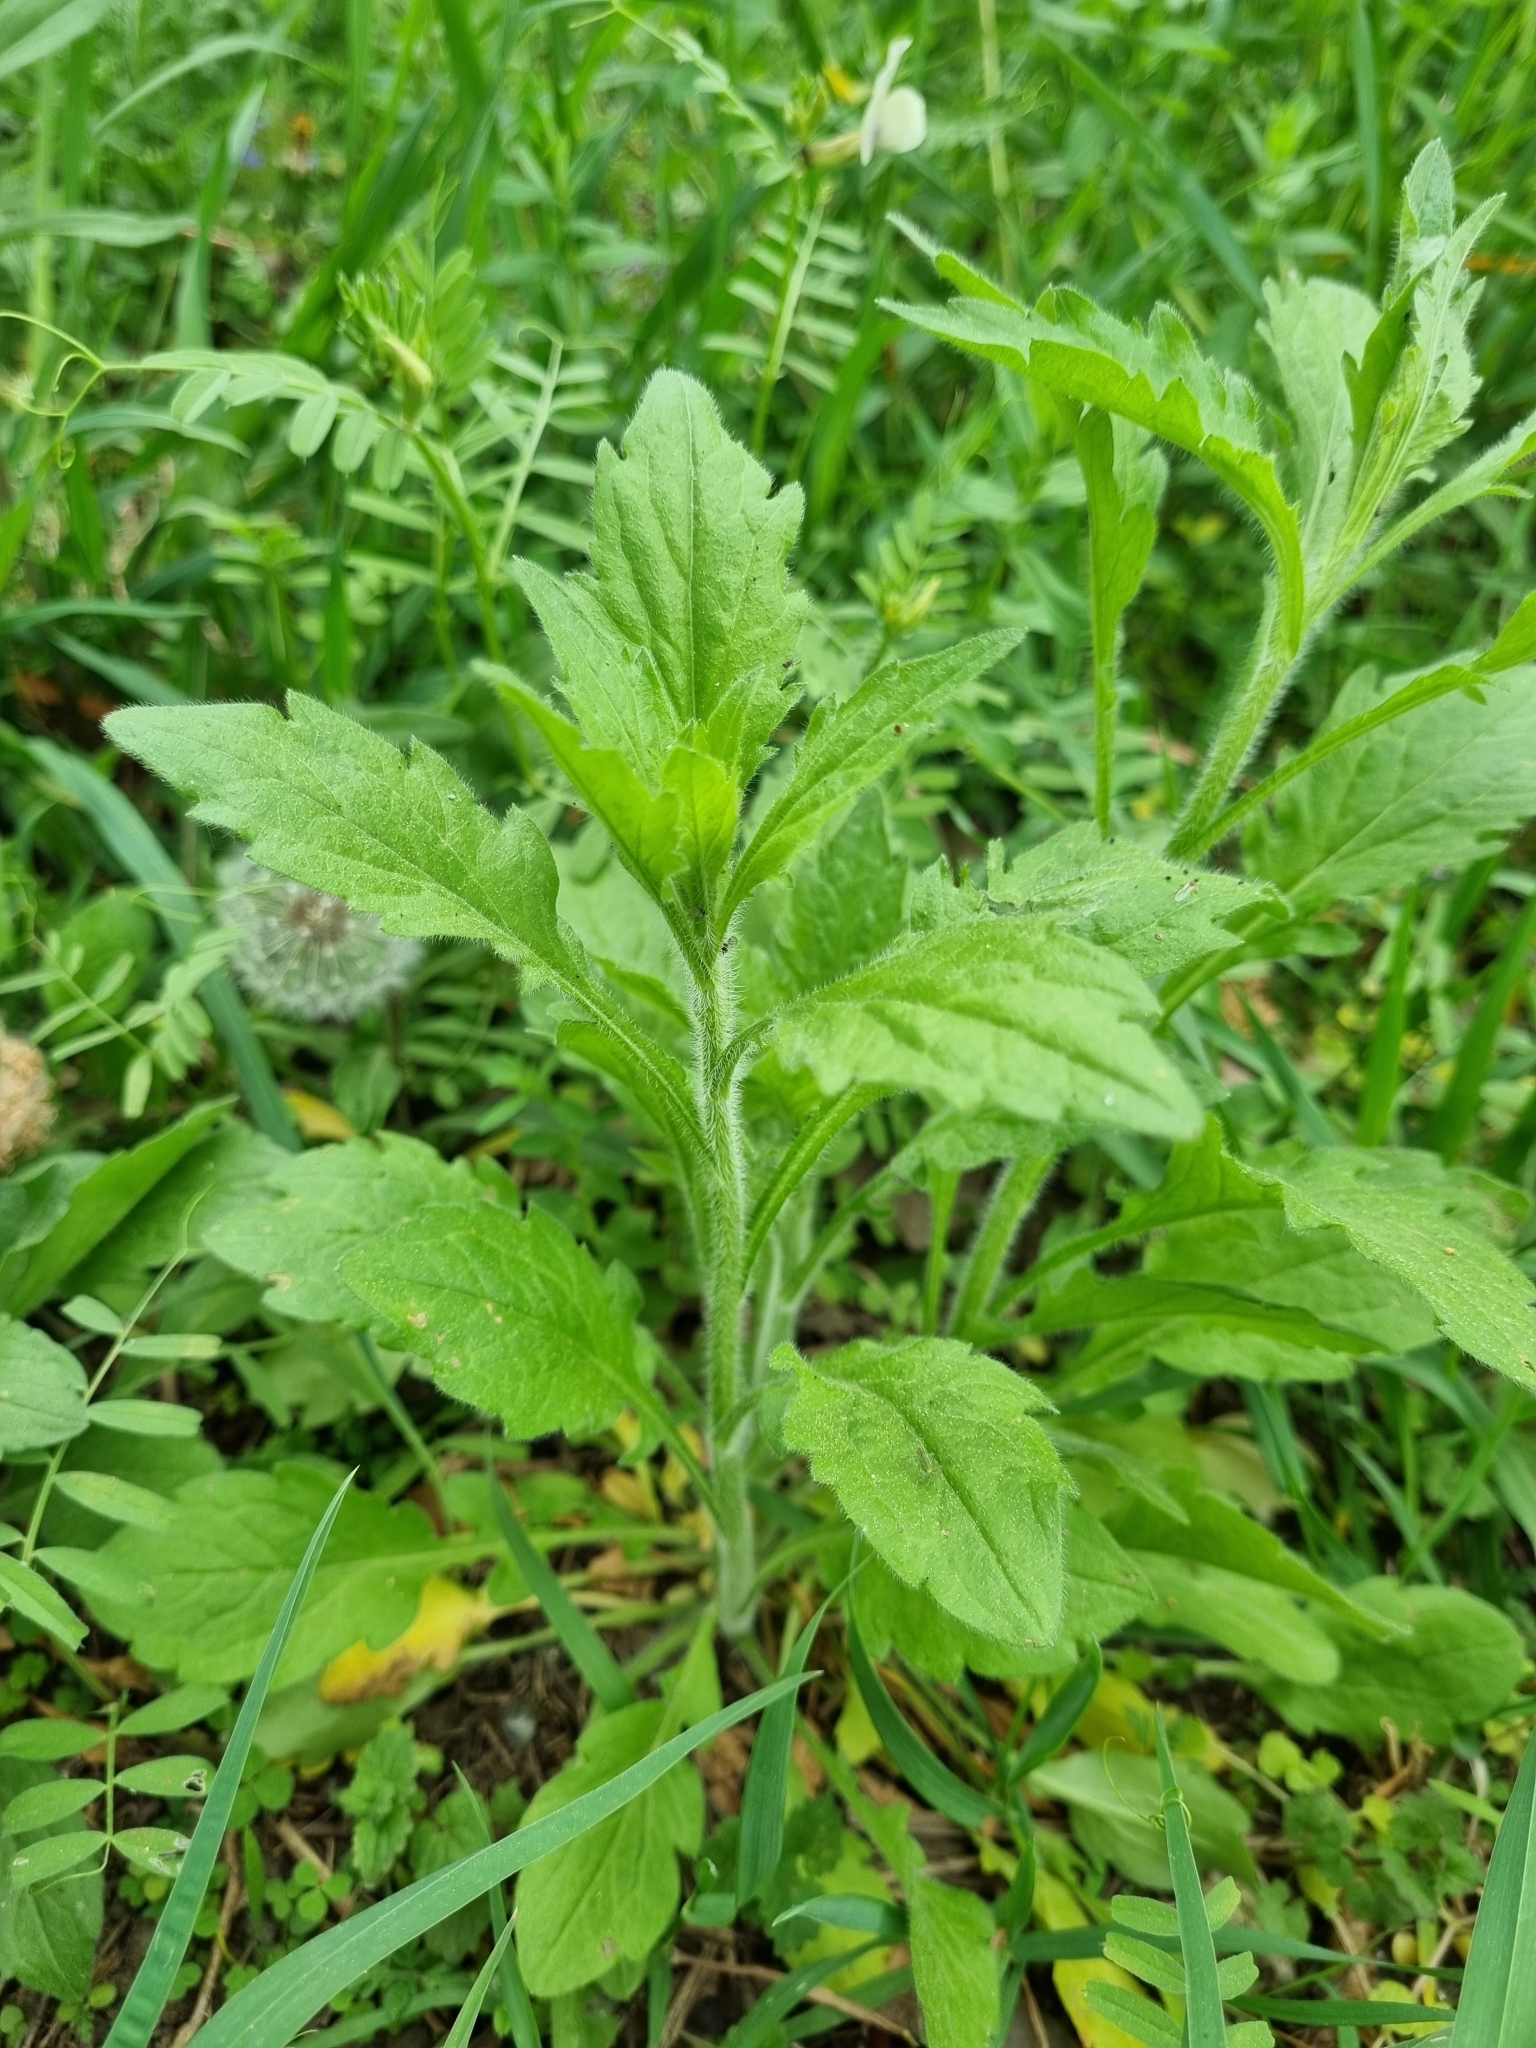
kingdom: Plantae
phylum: Tracheophyta
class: Magnoliopsida
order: Asterales
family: Asteraceae
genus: Erigeron
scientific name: Erigeron annuus
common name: Tall fleabane
